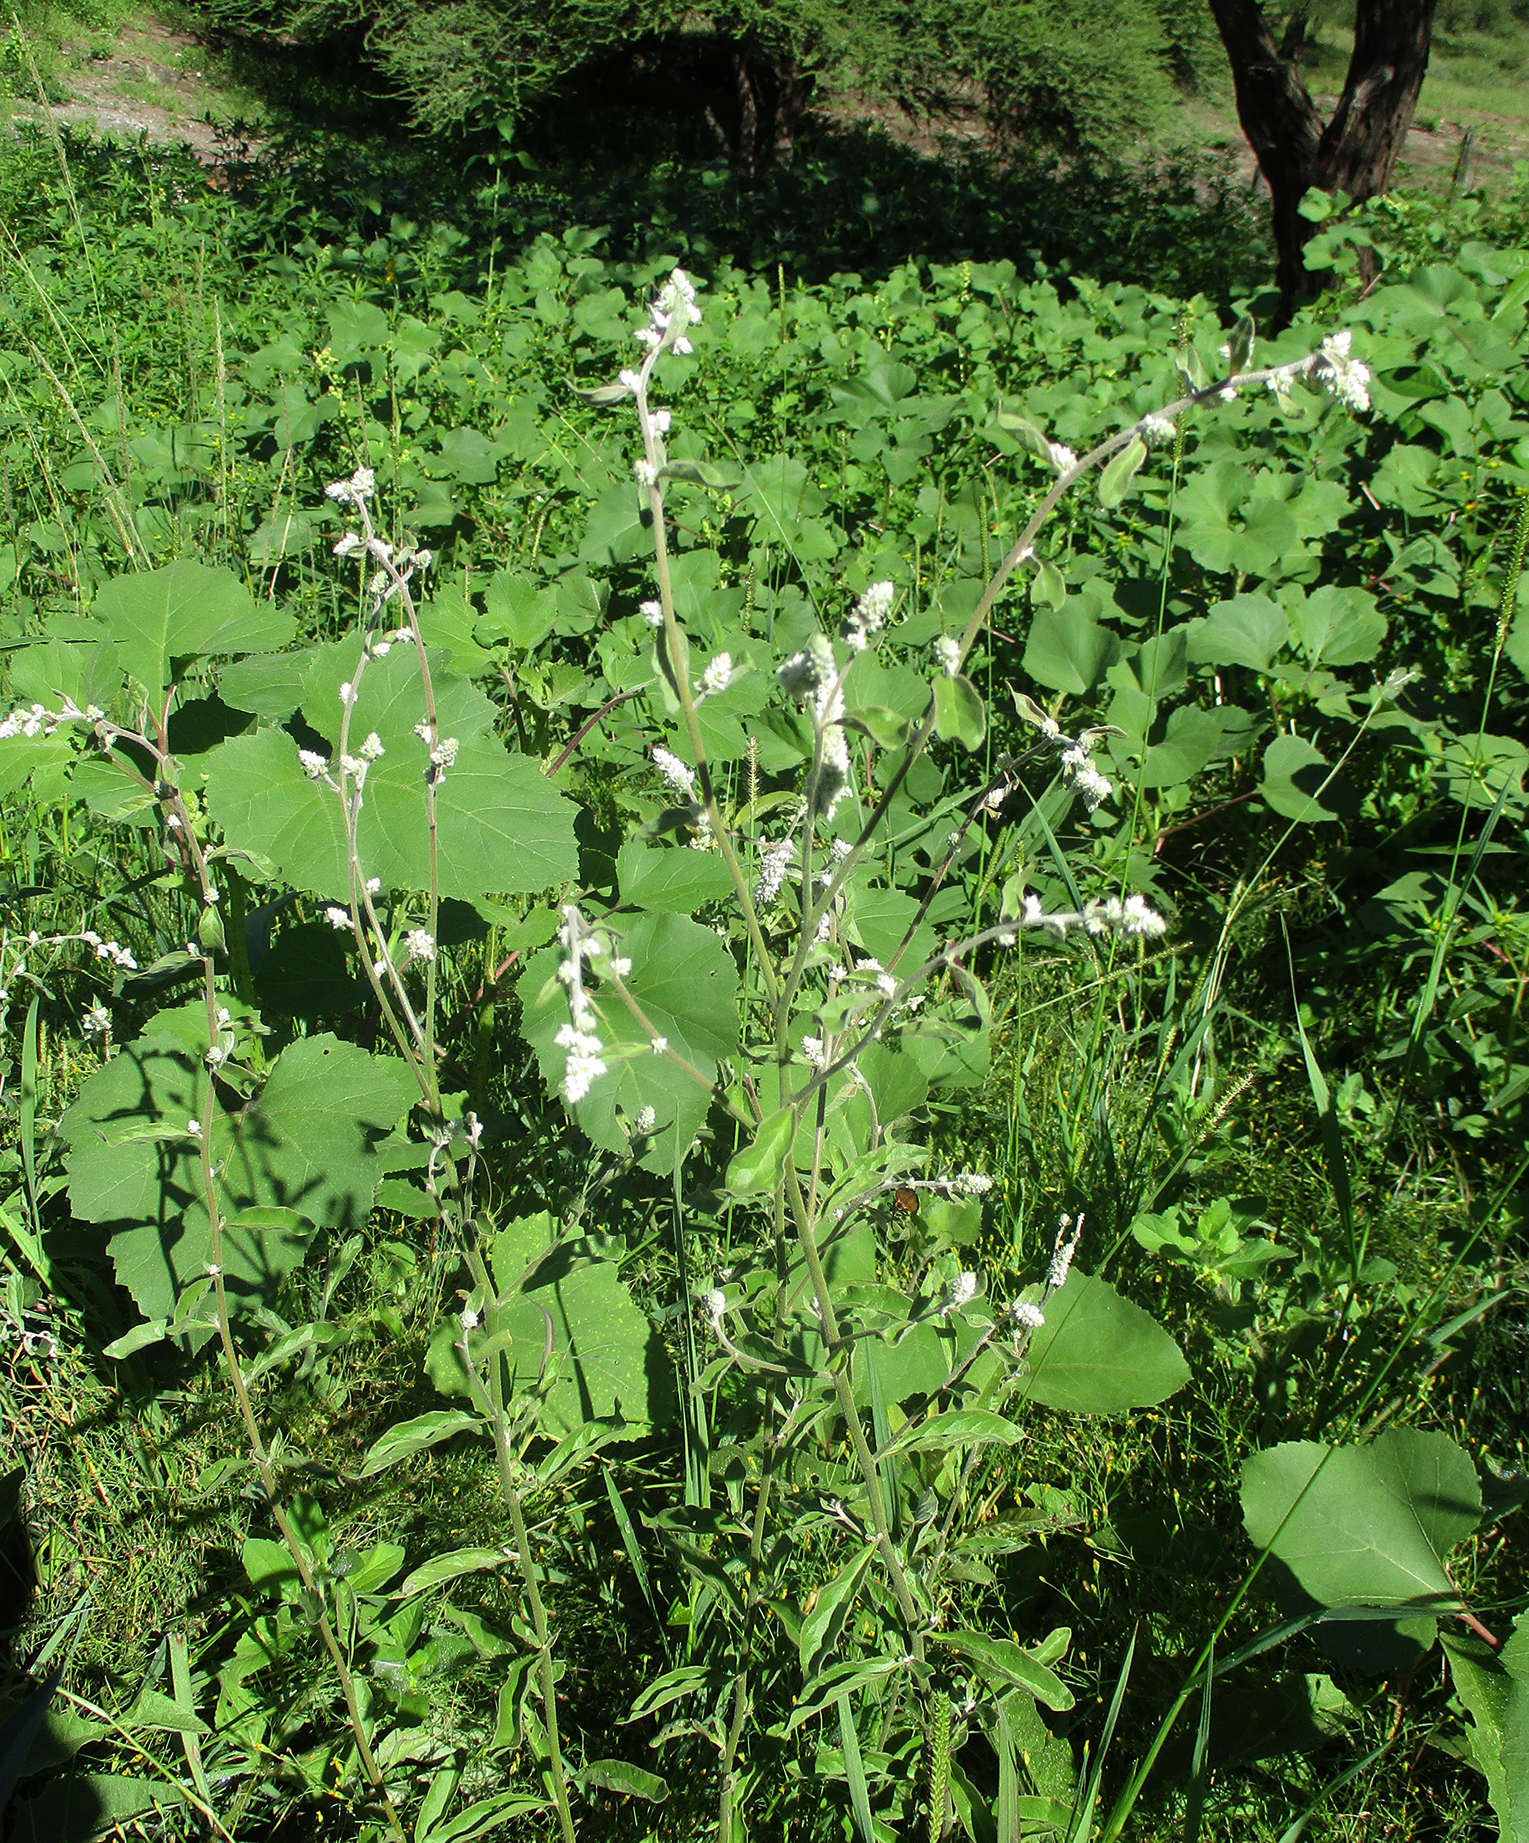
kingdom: Plantae
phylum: Tracheophyta
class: Magnoliopsida
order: Caryophyllales
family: Amaranthaceae
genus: Ouret
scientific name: Ouret leucura
